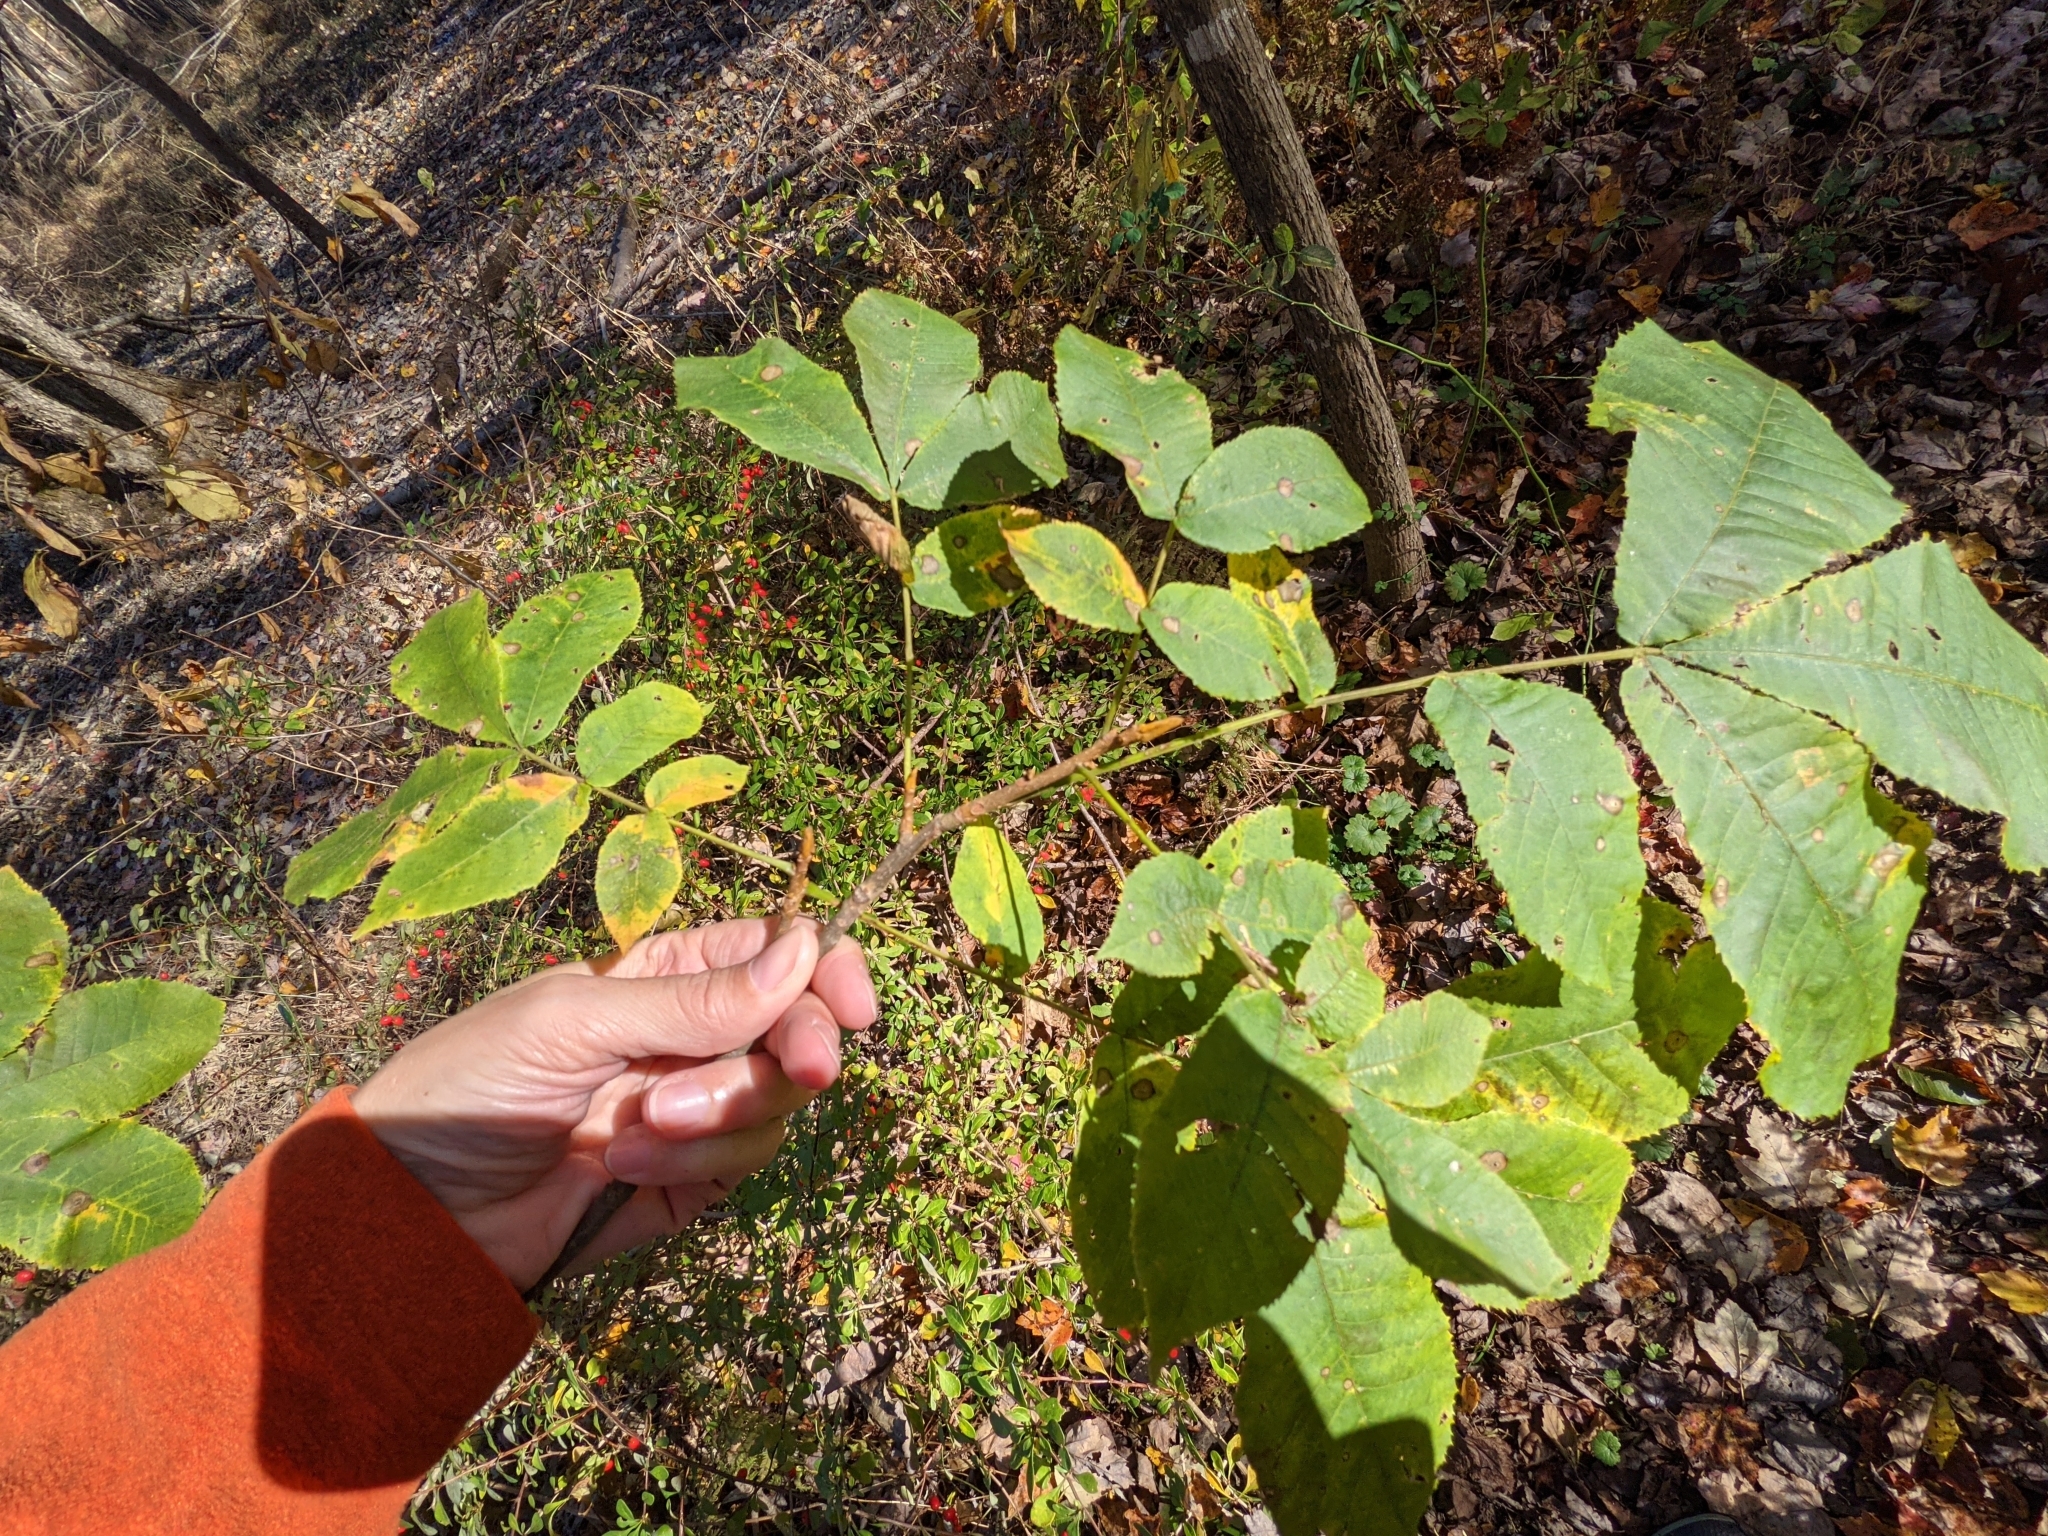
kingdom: Plantae
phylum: Tracheophyta
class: Magnoliopsida
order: Fagales
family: Juglandaceae
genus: Carya
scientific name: Carya cordiformis
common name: Bitternut hickory
